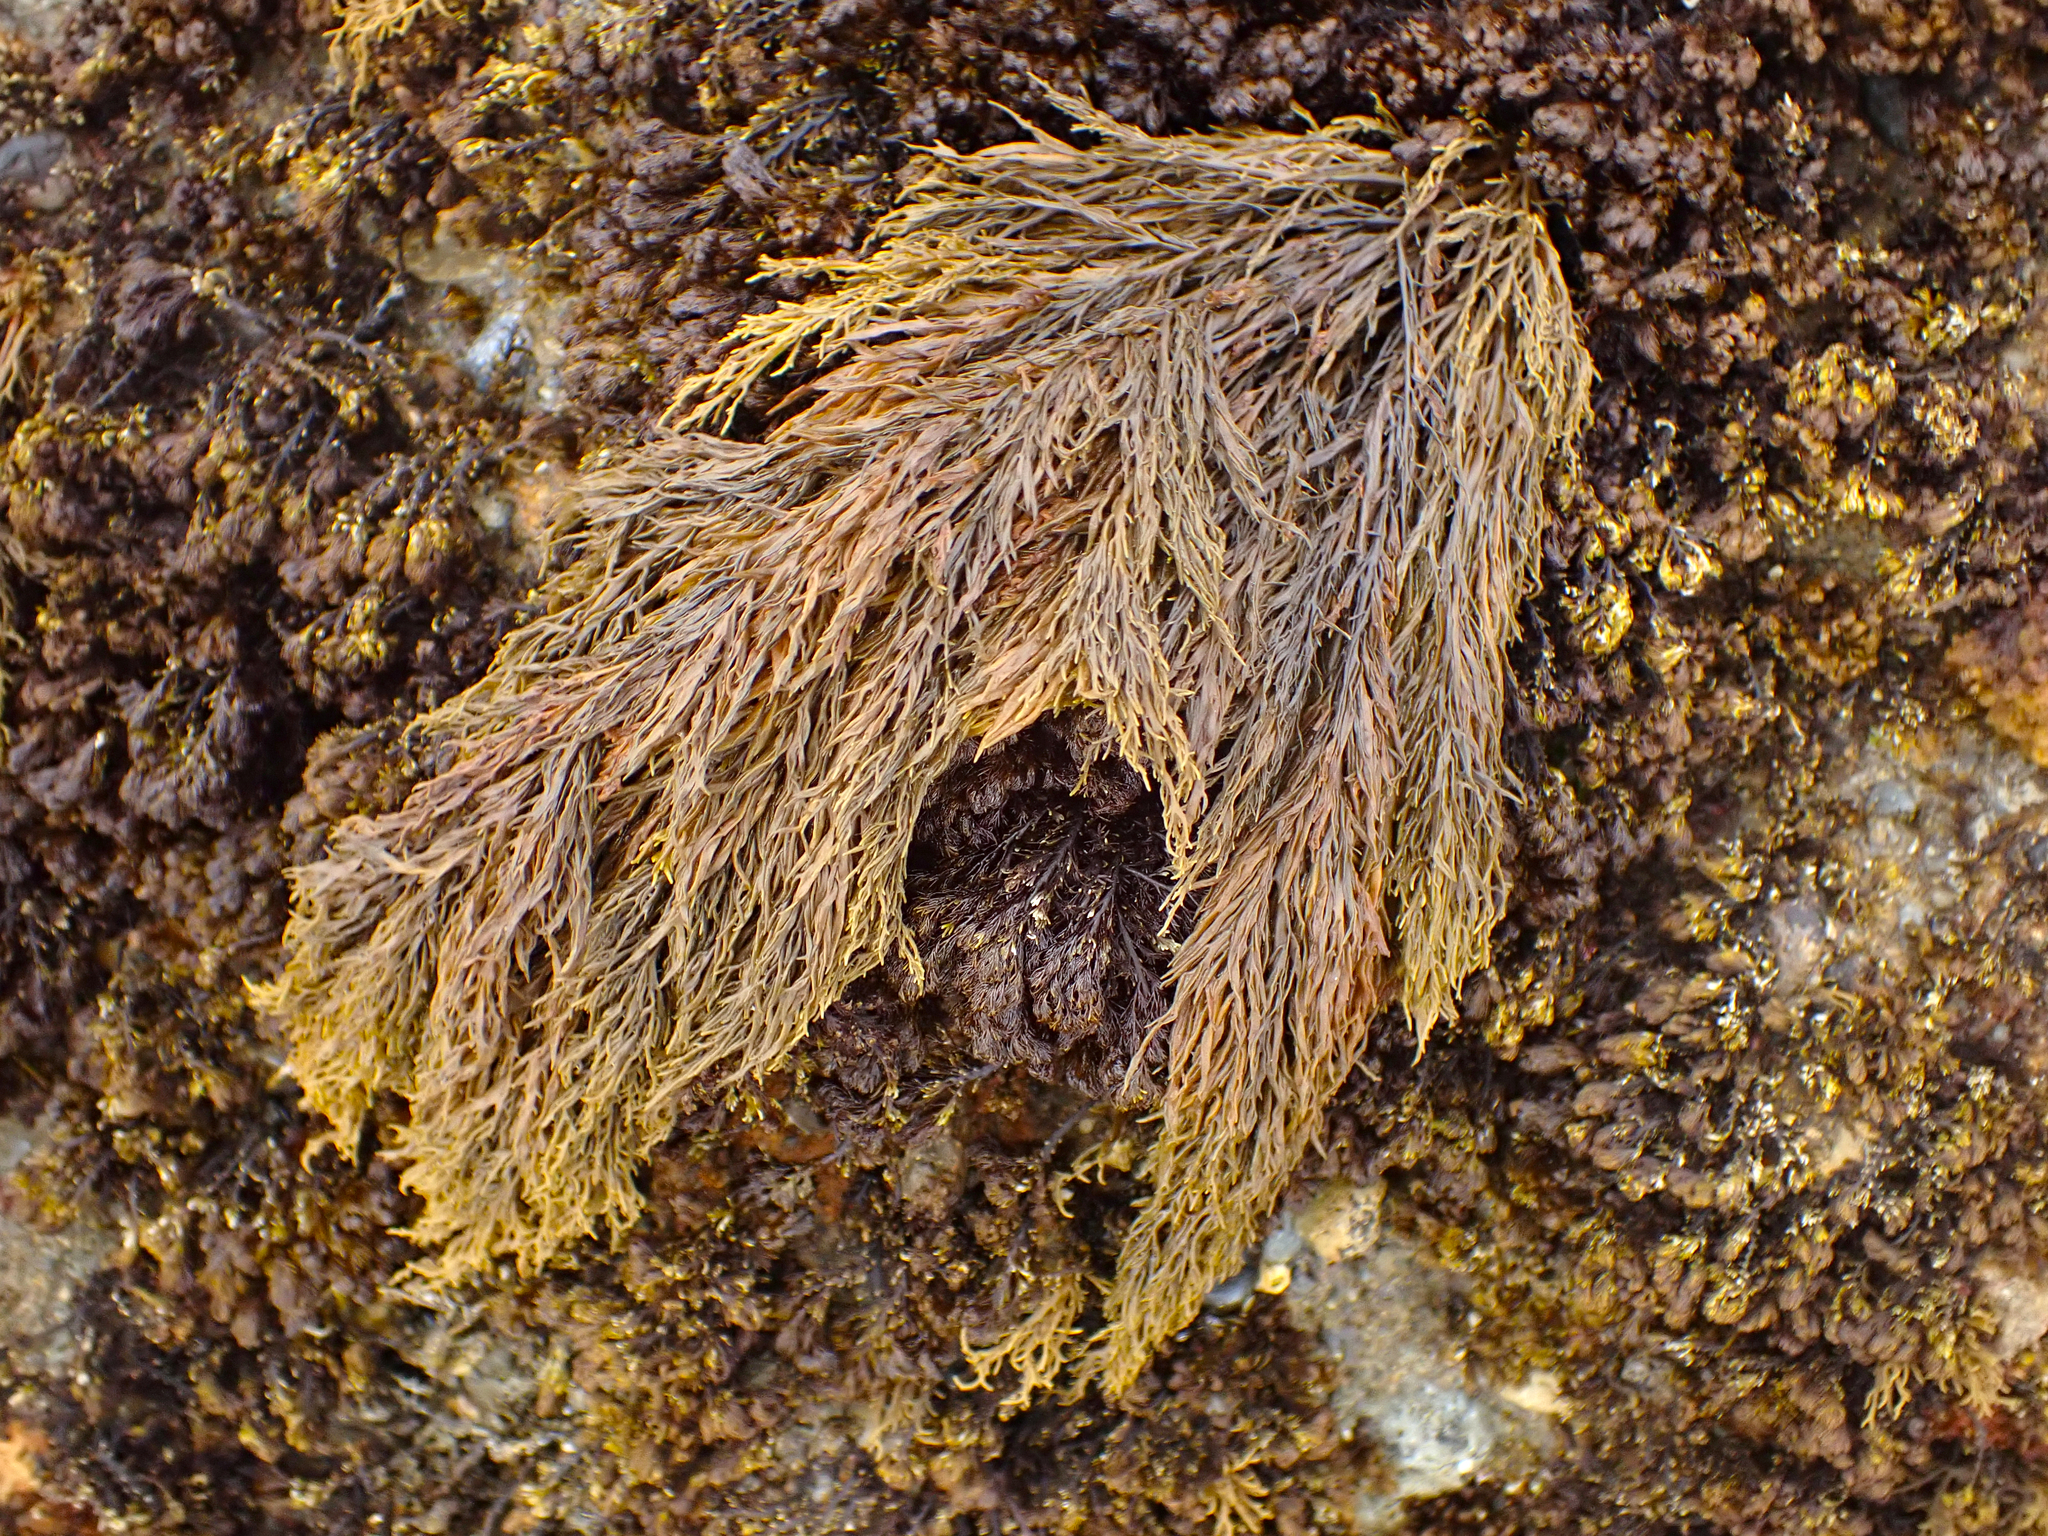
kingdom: Chromista
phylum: Ochrophyta
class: Phaeophyceae
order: Scytothamnales
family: Scytothamnaceae
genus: Scytothamnus
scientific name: Scytothamnus australis
